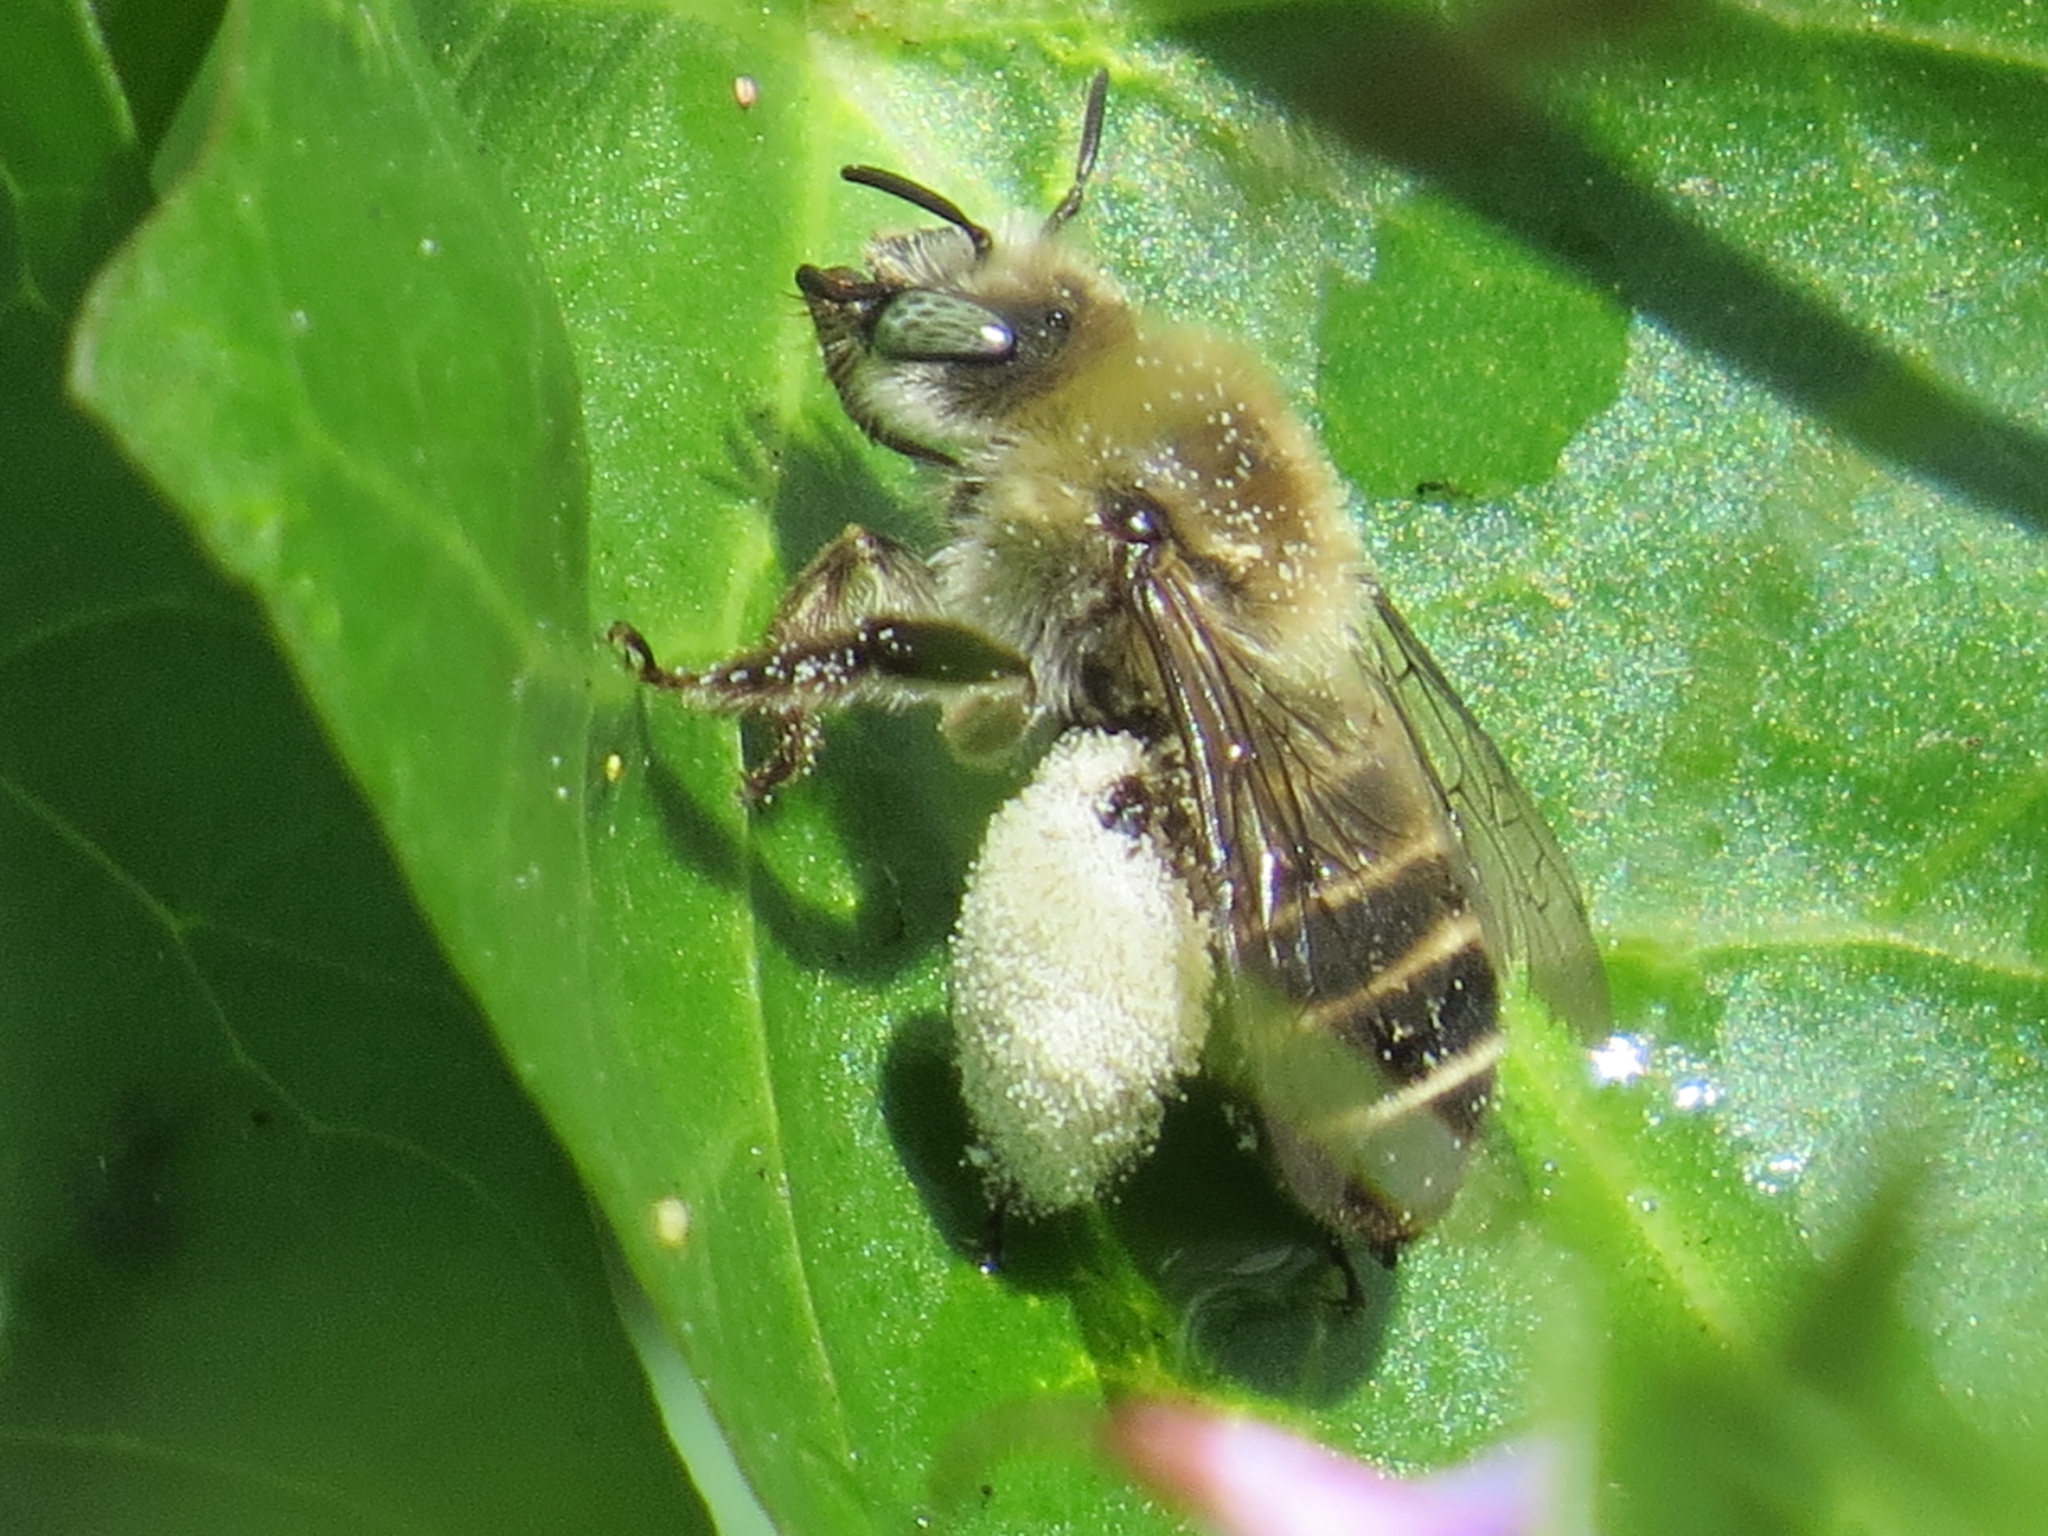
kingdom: Animalia
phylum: Arthropoda
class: Insecta
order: Hymenoptera
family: Apidae
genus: Diadasia
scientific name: Diadasia bituberculata
